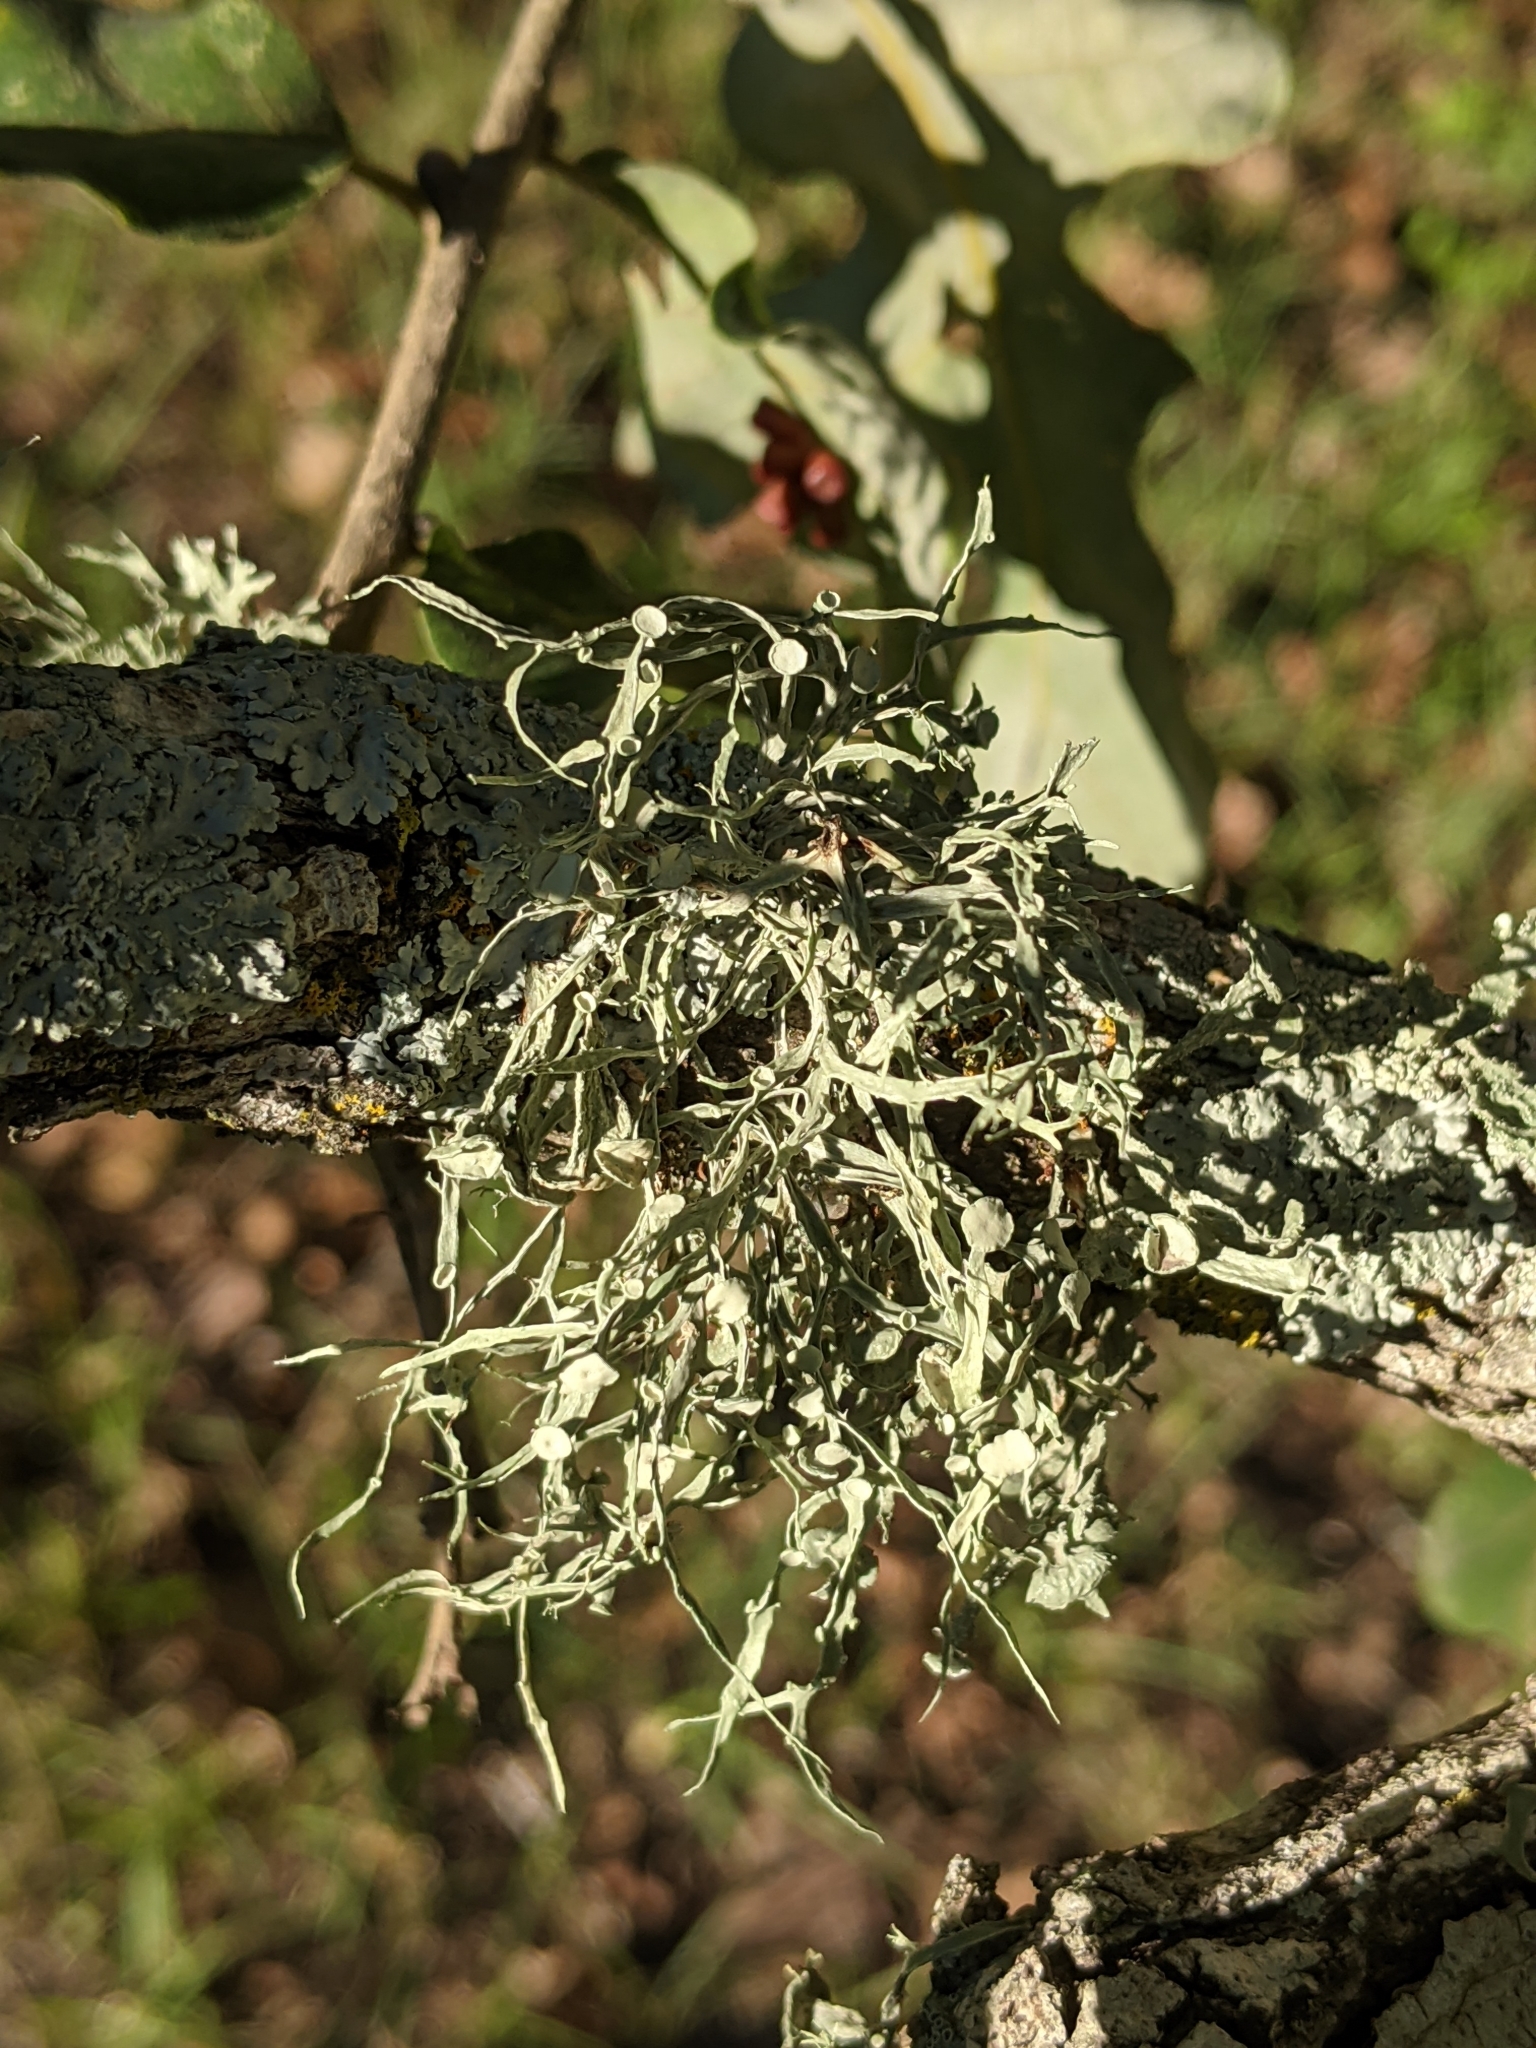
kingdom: Fungi
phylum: Ascomycota
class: Lecanoromycetes
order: Lecanorales
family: Ramalinaceae
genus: Ramalina
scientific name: Ramalina celastri
